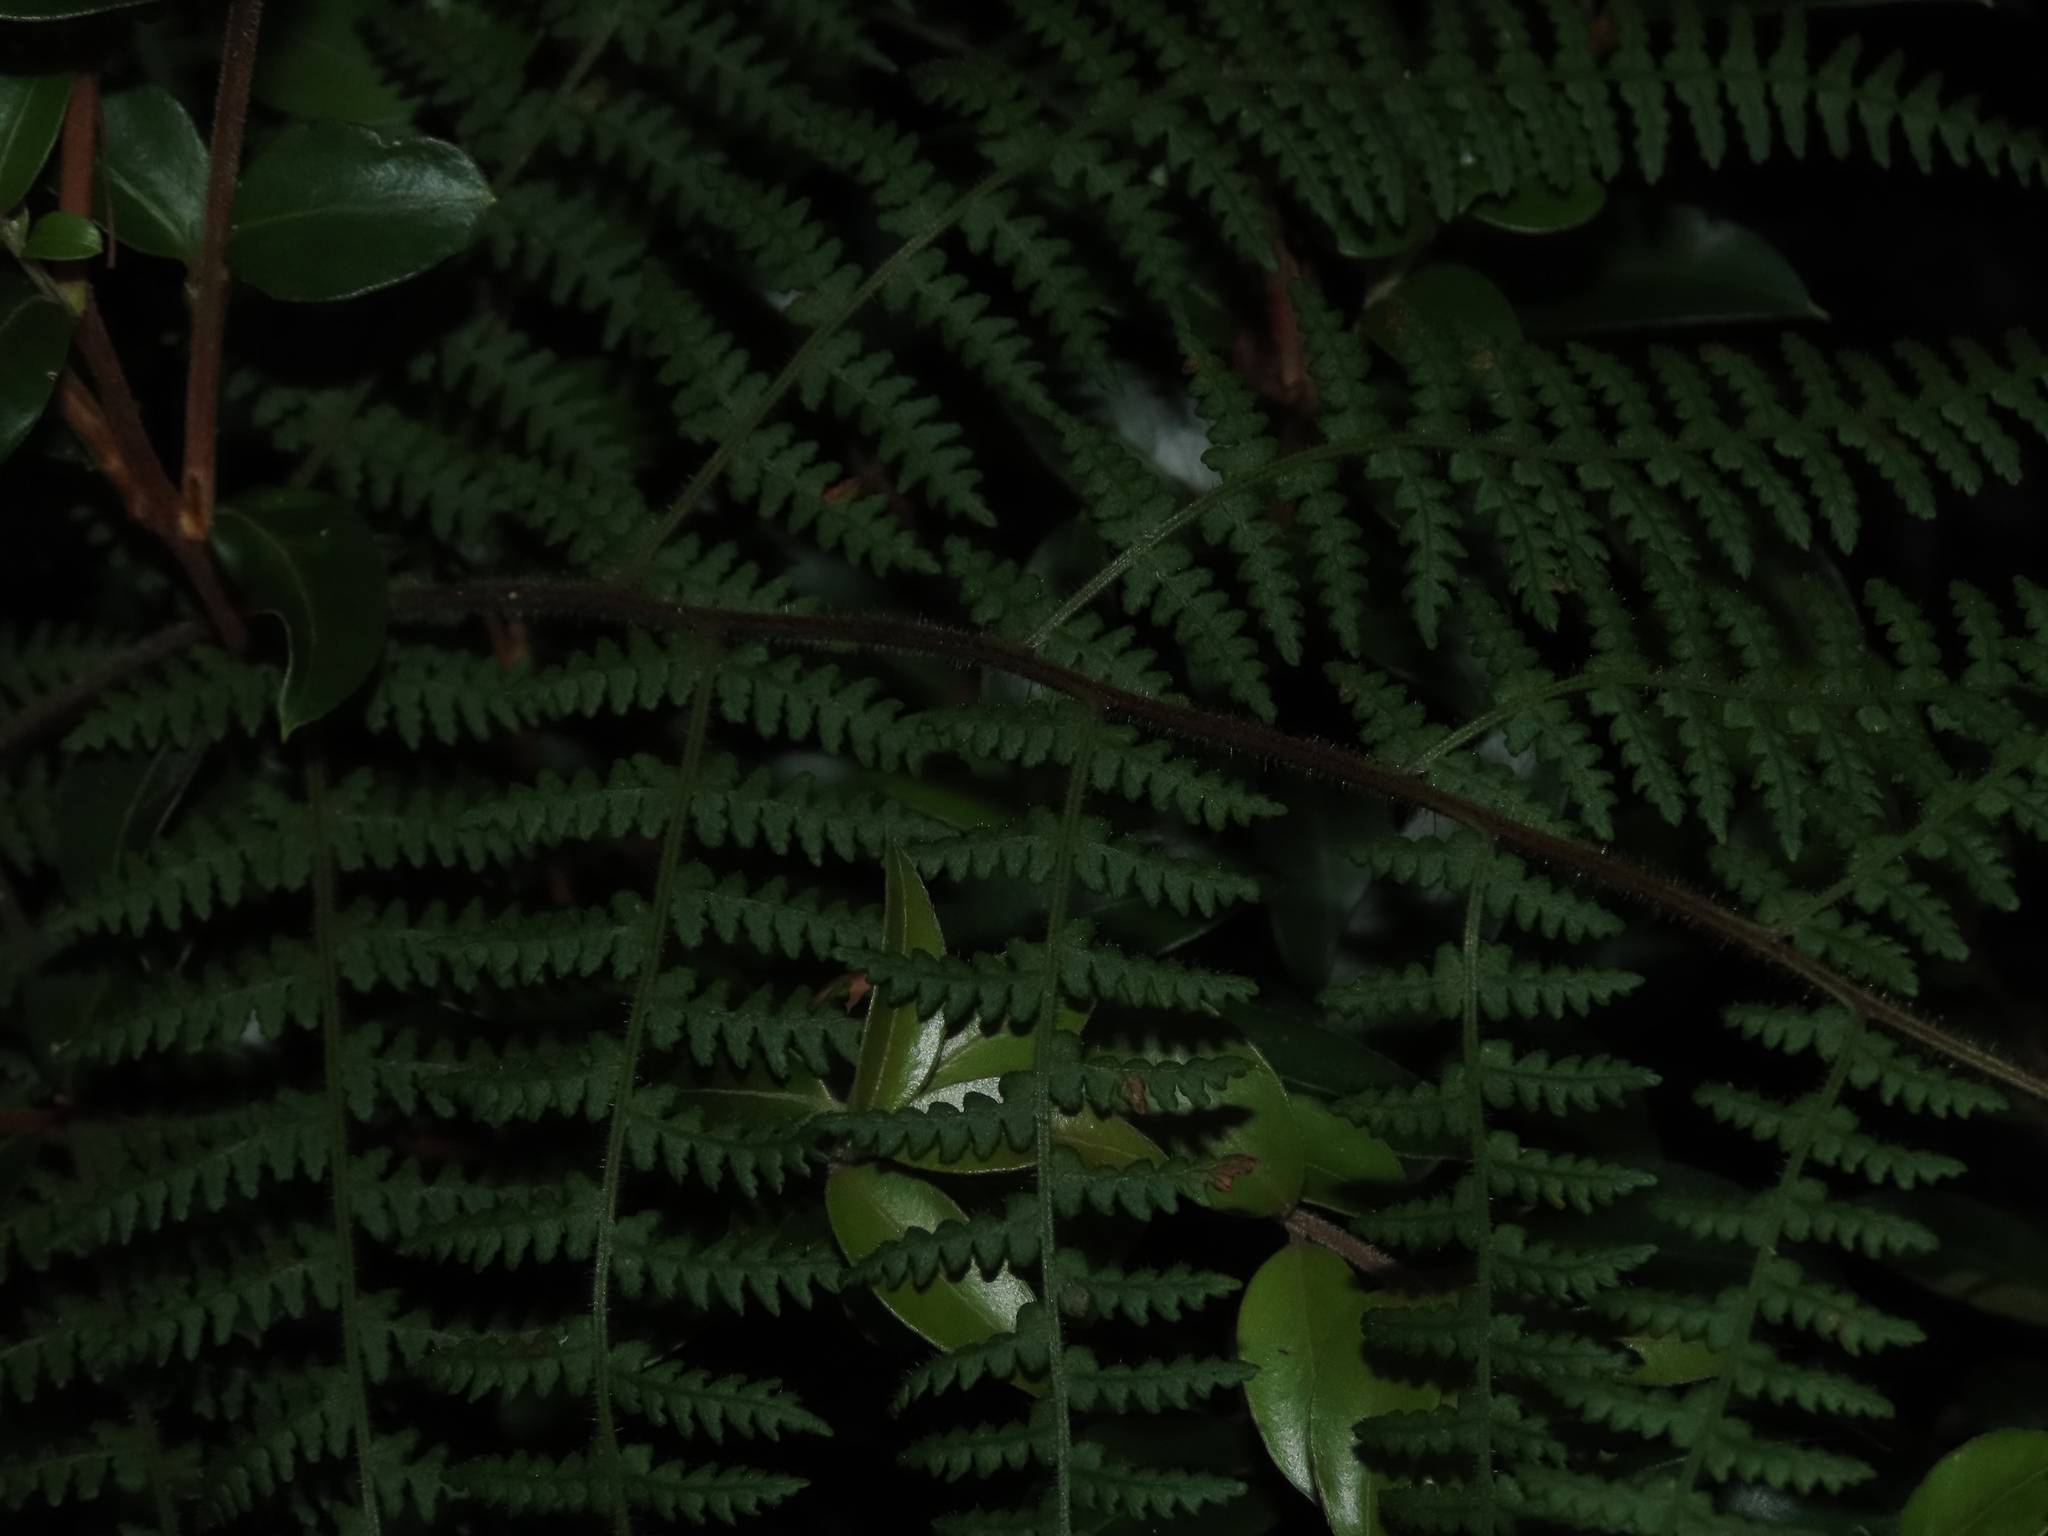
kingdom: Plantae
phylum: Tracheophyta
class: Polypodiopsida
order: Polypodiales
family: Dennstaedtiaceae
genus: Hypolepis
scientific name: Hypolepis rugosula
